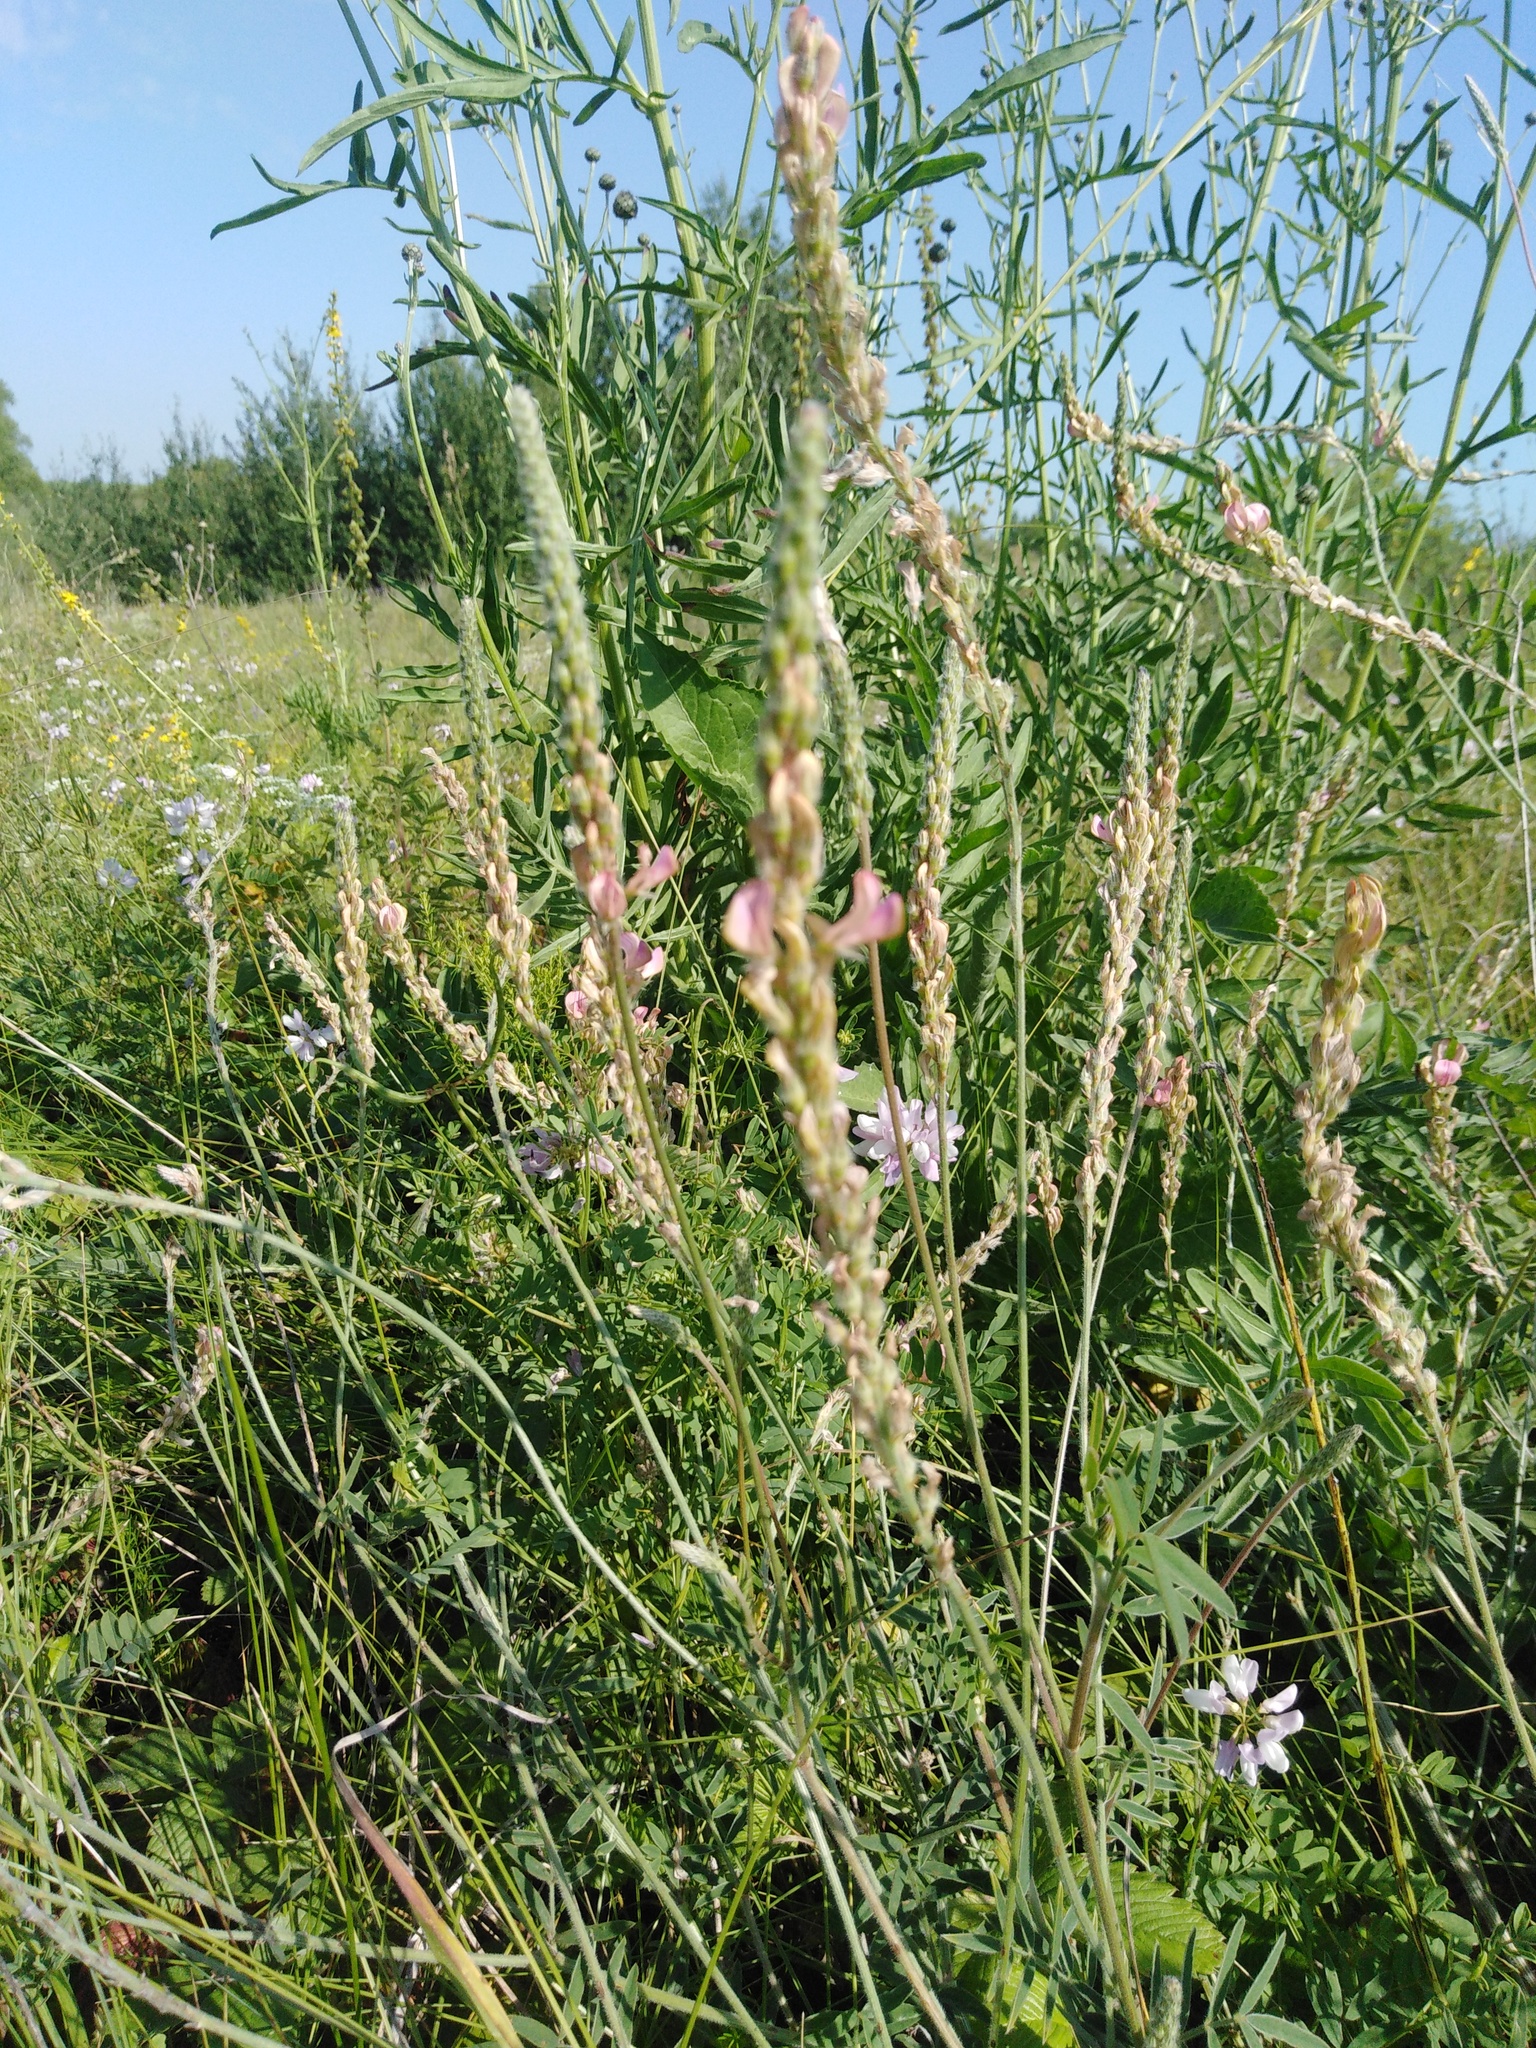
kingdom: Plantae
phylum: Tracheophyta
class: Magnoliopsida
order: Fabales
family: Fabaceae
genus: Onobrychis
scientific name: Onobrychis viciifolia
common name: Sainfoin
